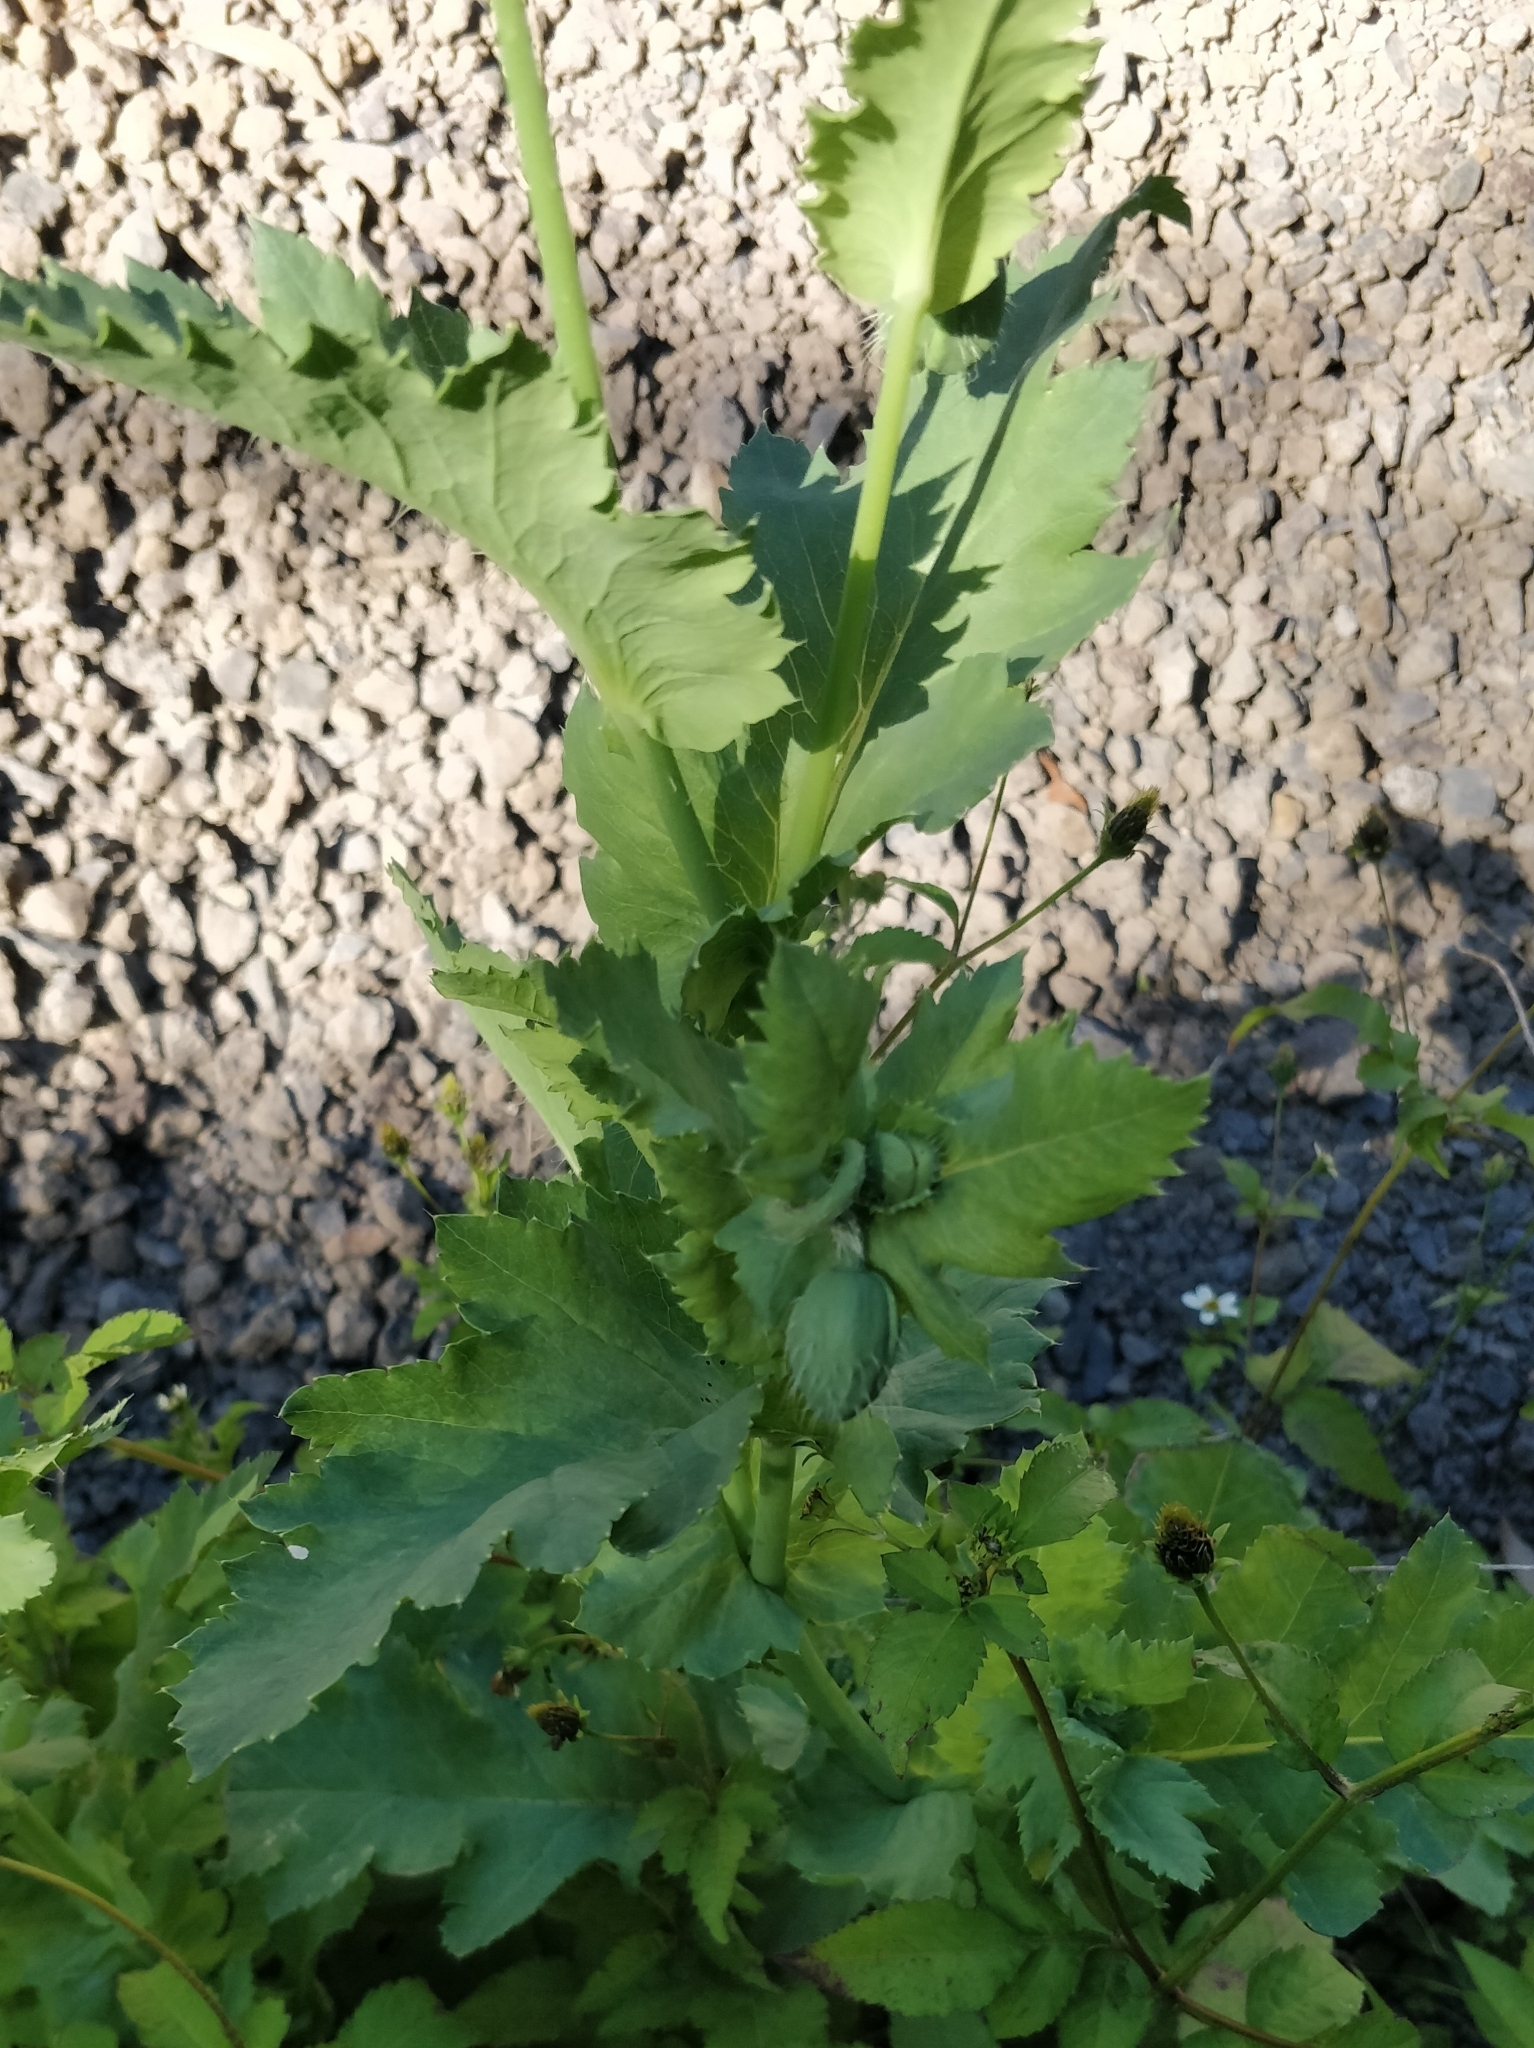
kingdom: Plantae
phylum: Tracheophyta
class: Magnoliopsida
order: Ranunculales
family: Papaveraceae
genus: Papaver
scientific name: Papaver somniferum
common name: Opium poppy
